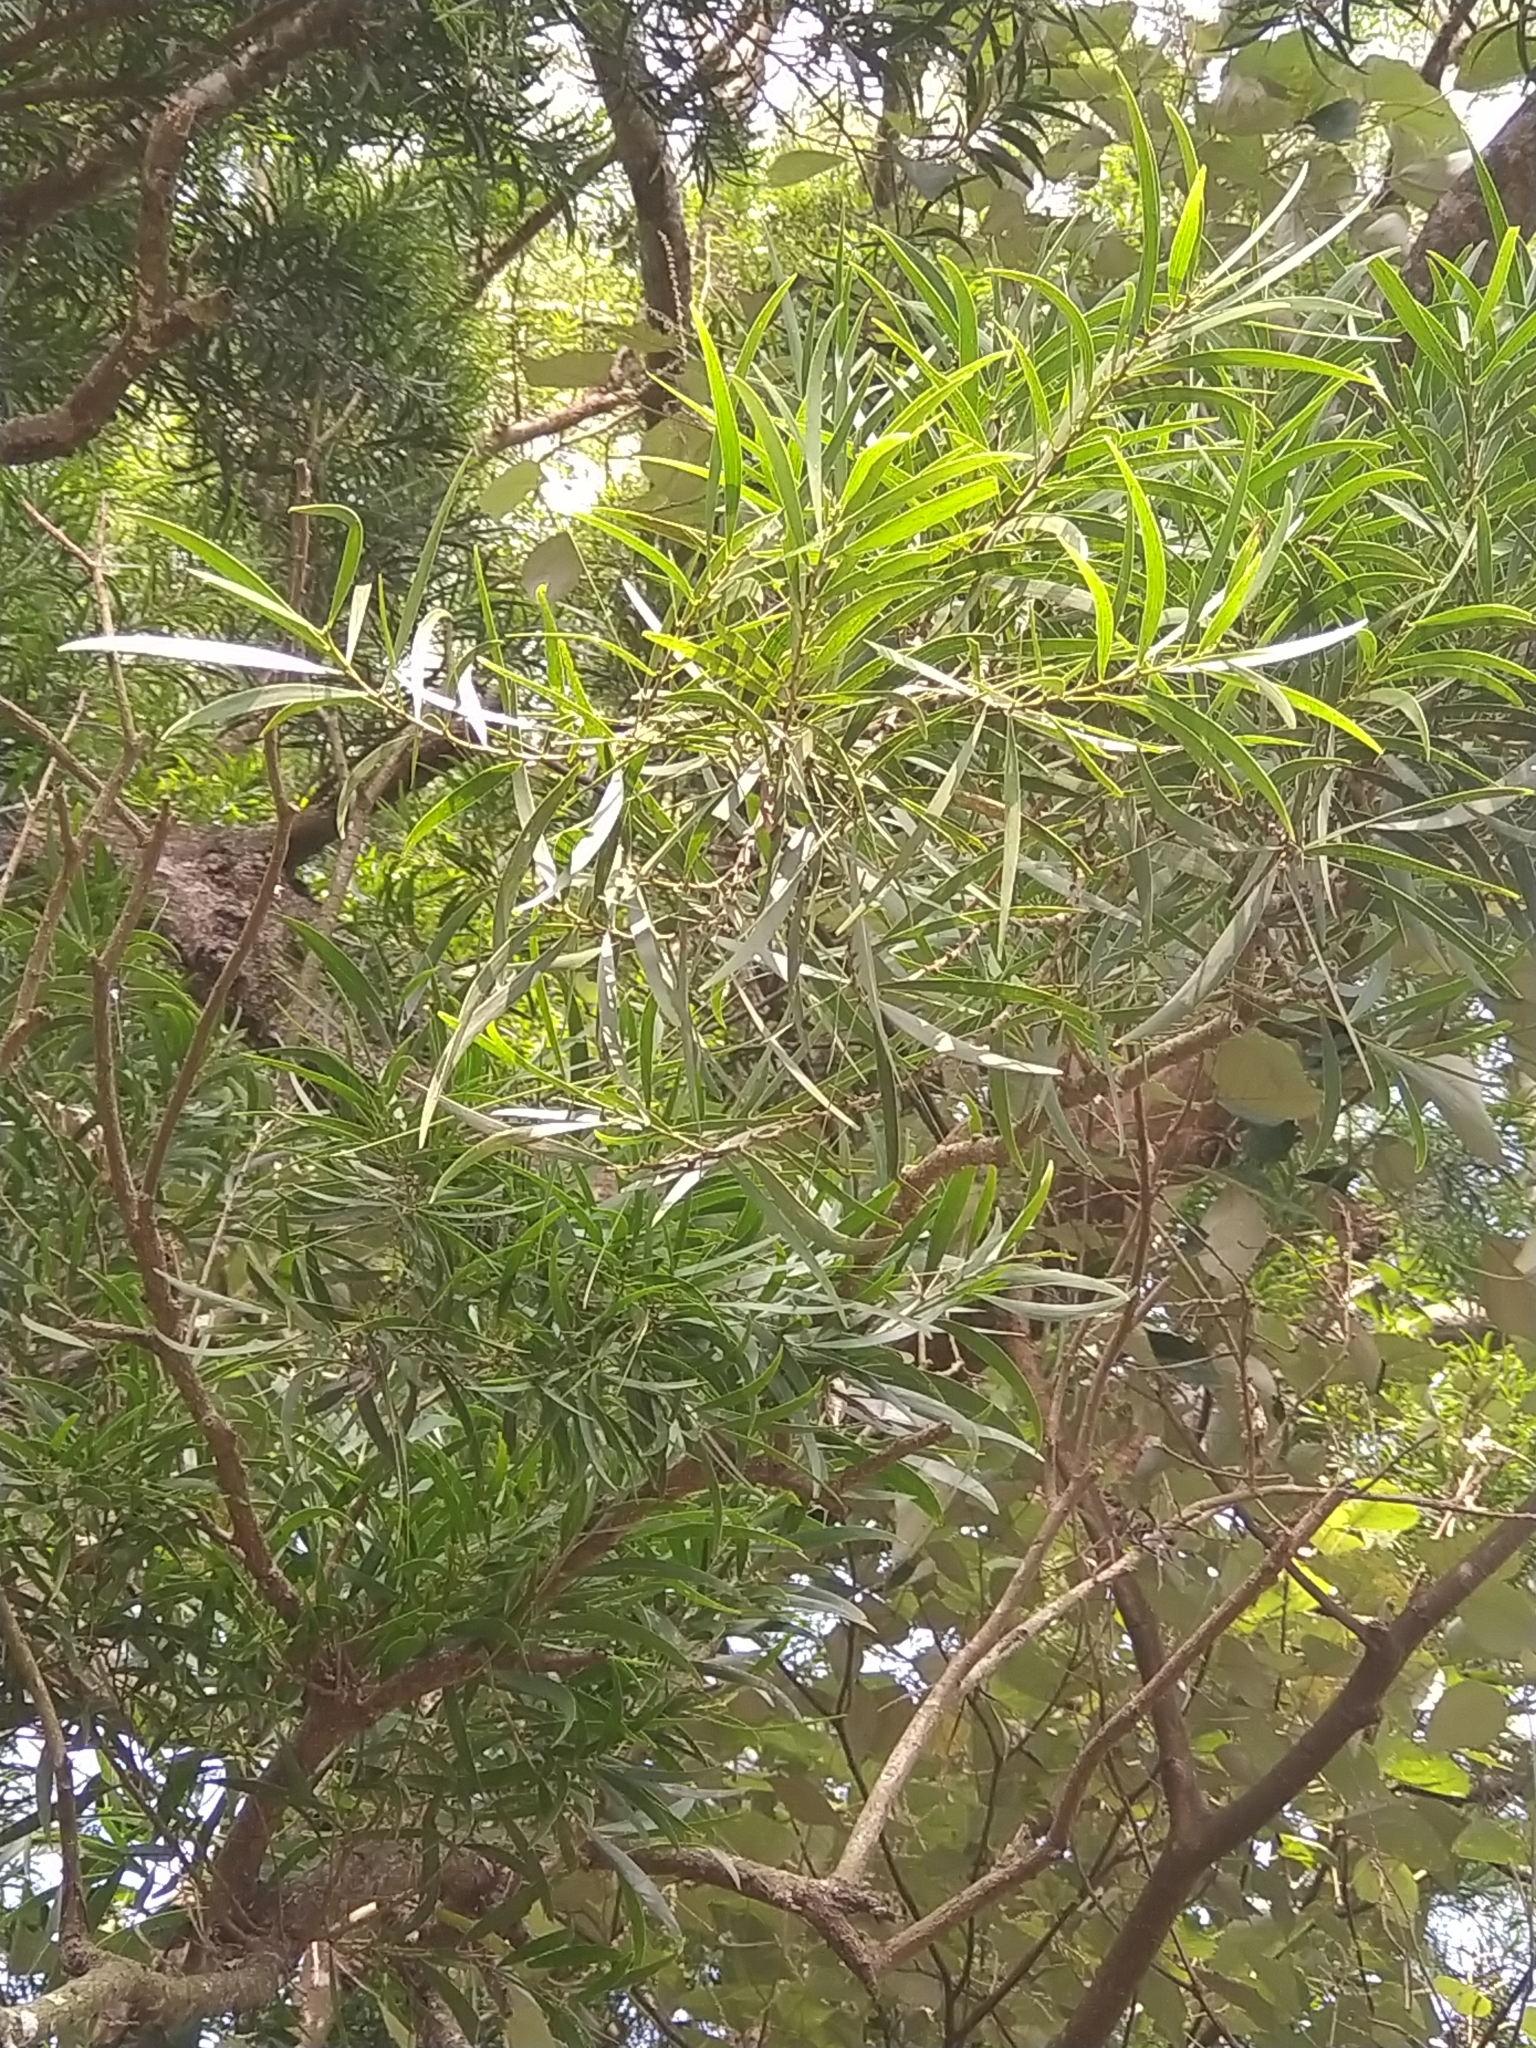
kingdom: Plantae
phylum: Tracheophyta
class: Magnoliopsida
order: Fabales
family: Fabaceae
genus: Acacia
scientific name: Acacia confusa
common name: Formosan koa
